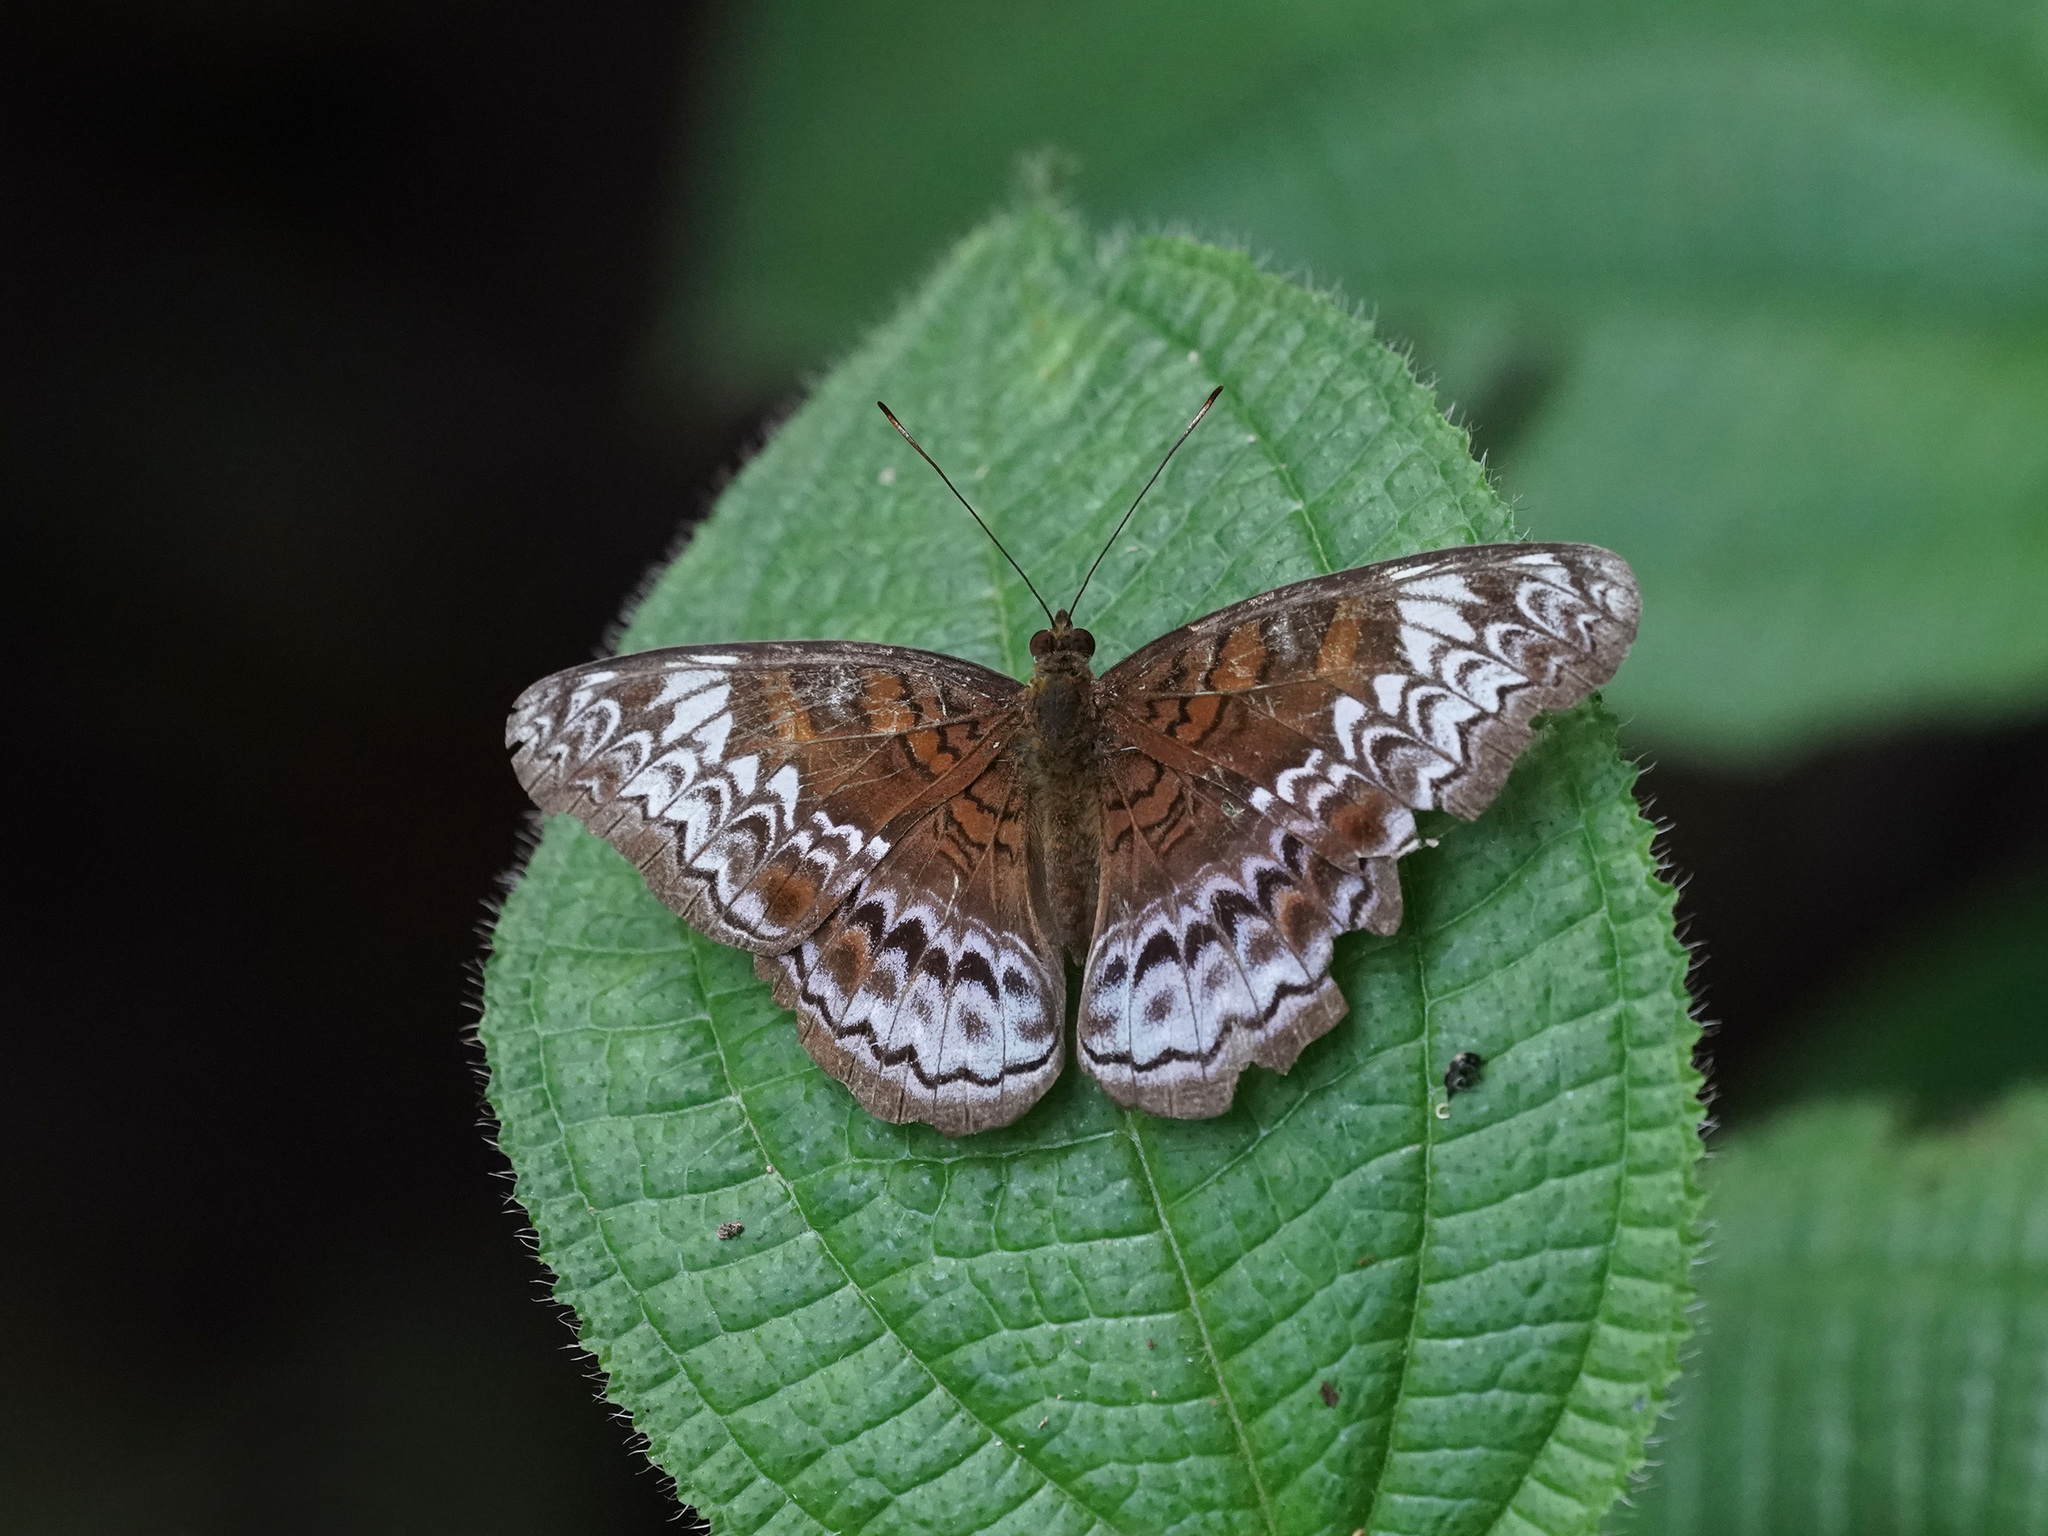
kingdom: Animalia
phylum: Arthropoda
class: Insecta
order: Lepidoptera
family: Nymphalidae
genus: Lebadea
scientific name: Lebadea martha
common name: Knight
